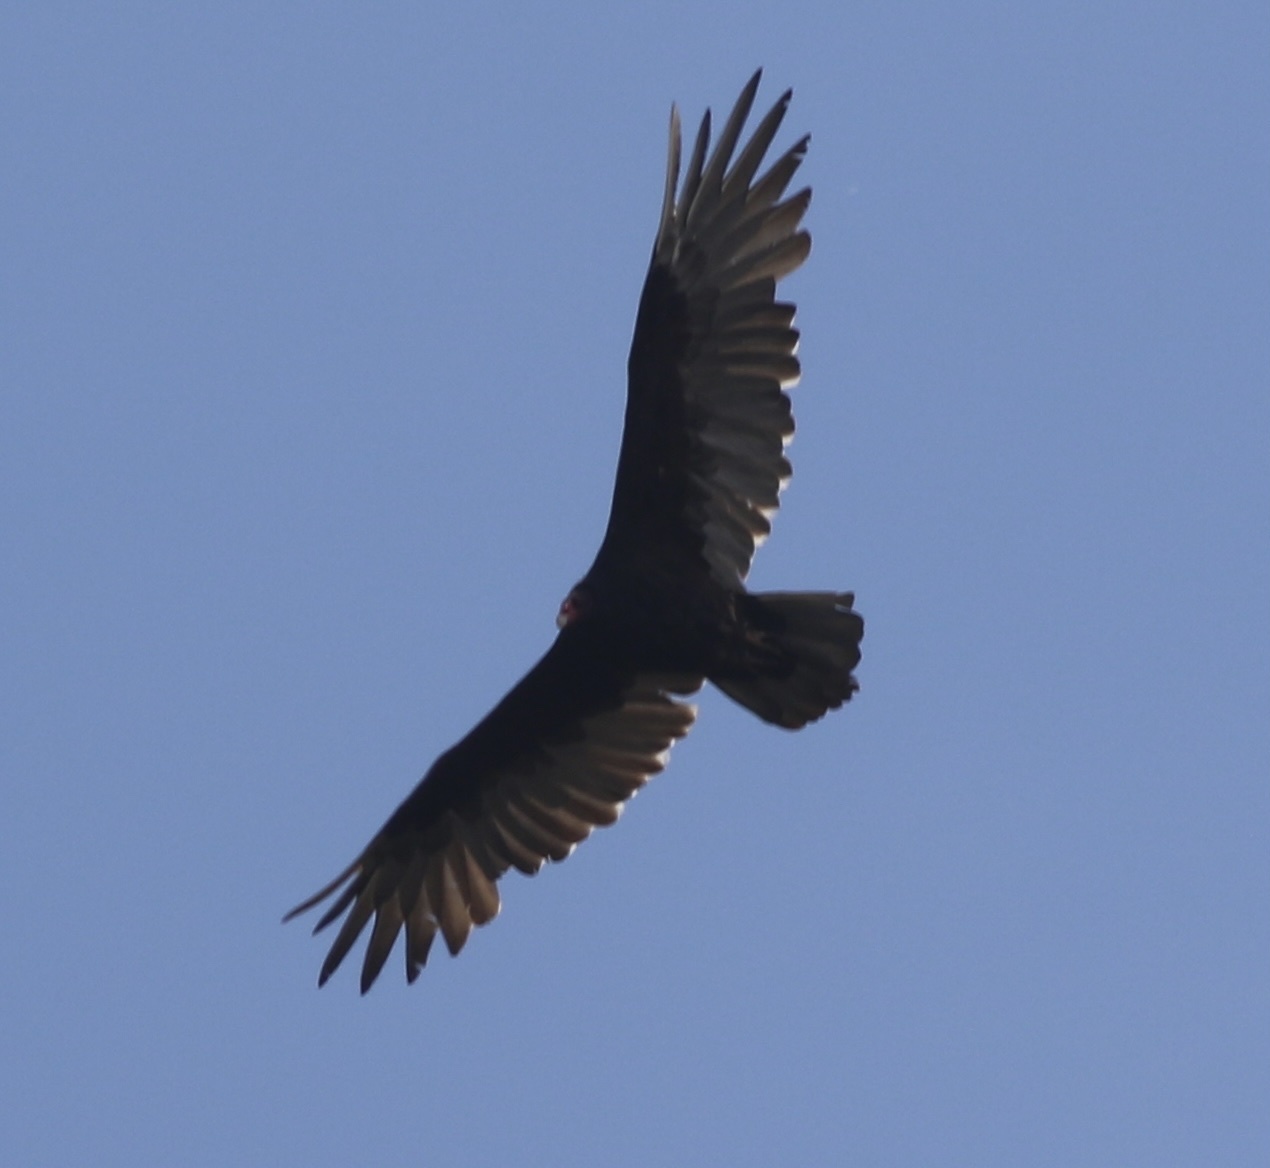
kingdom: Animalia
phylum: Chordata
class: Aves
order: Accipitriformes
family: Cathartidae
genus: Cathartes
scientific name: Cathartes aura
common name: Turkey vulture
